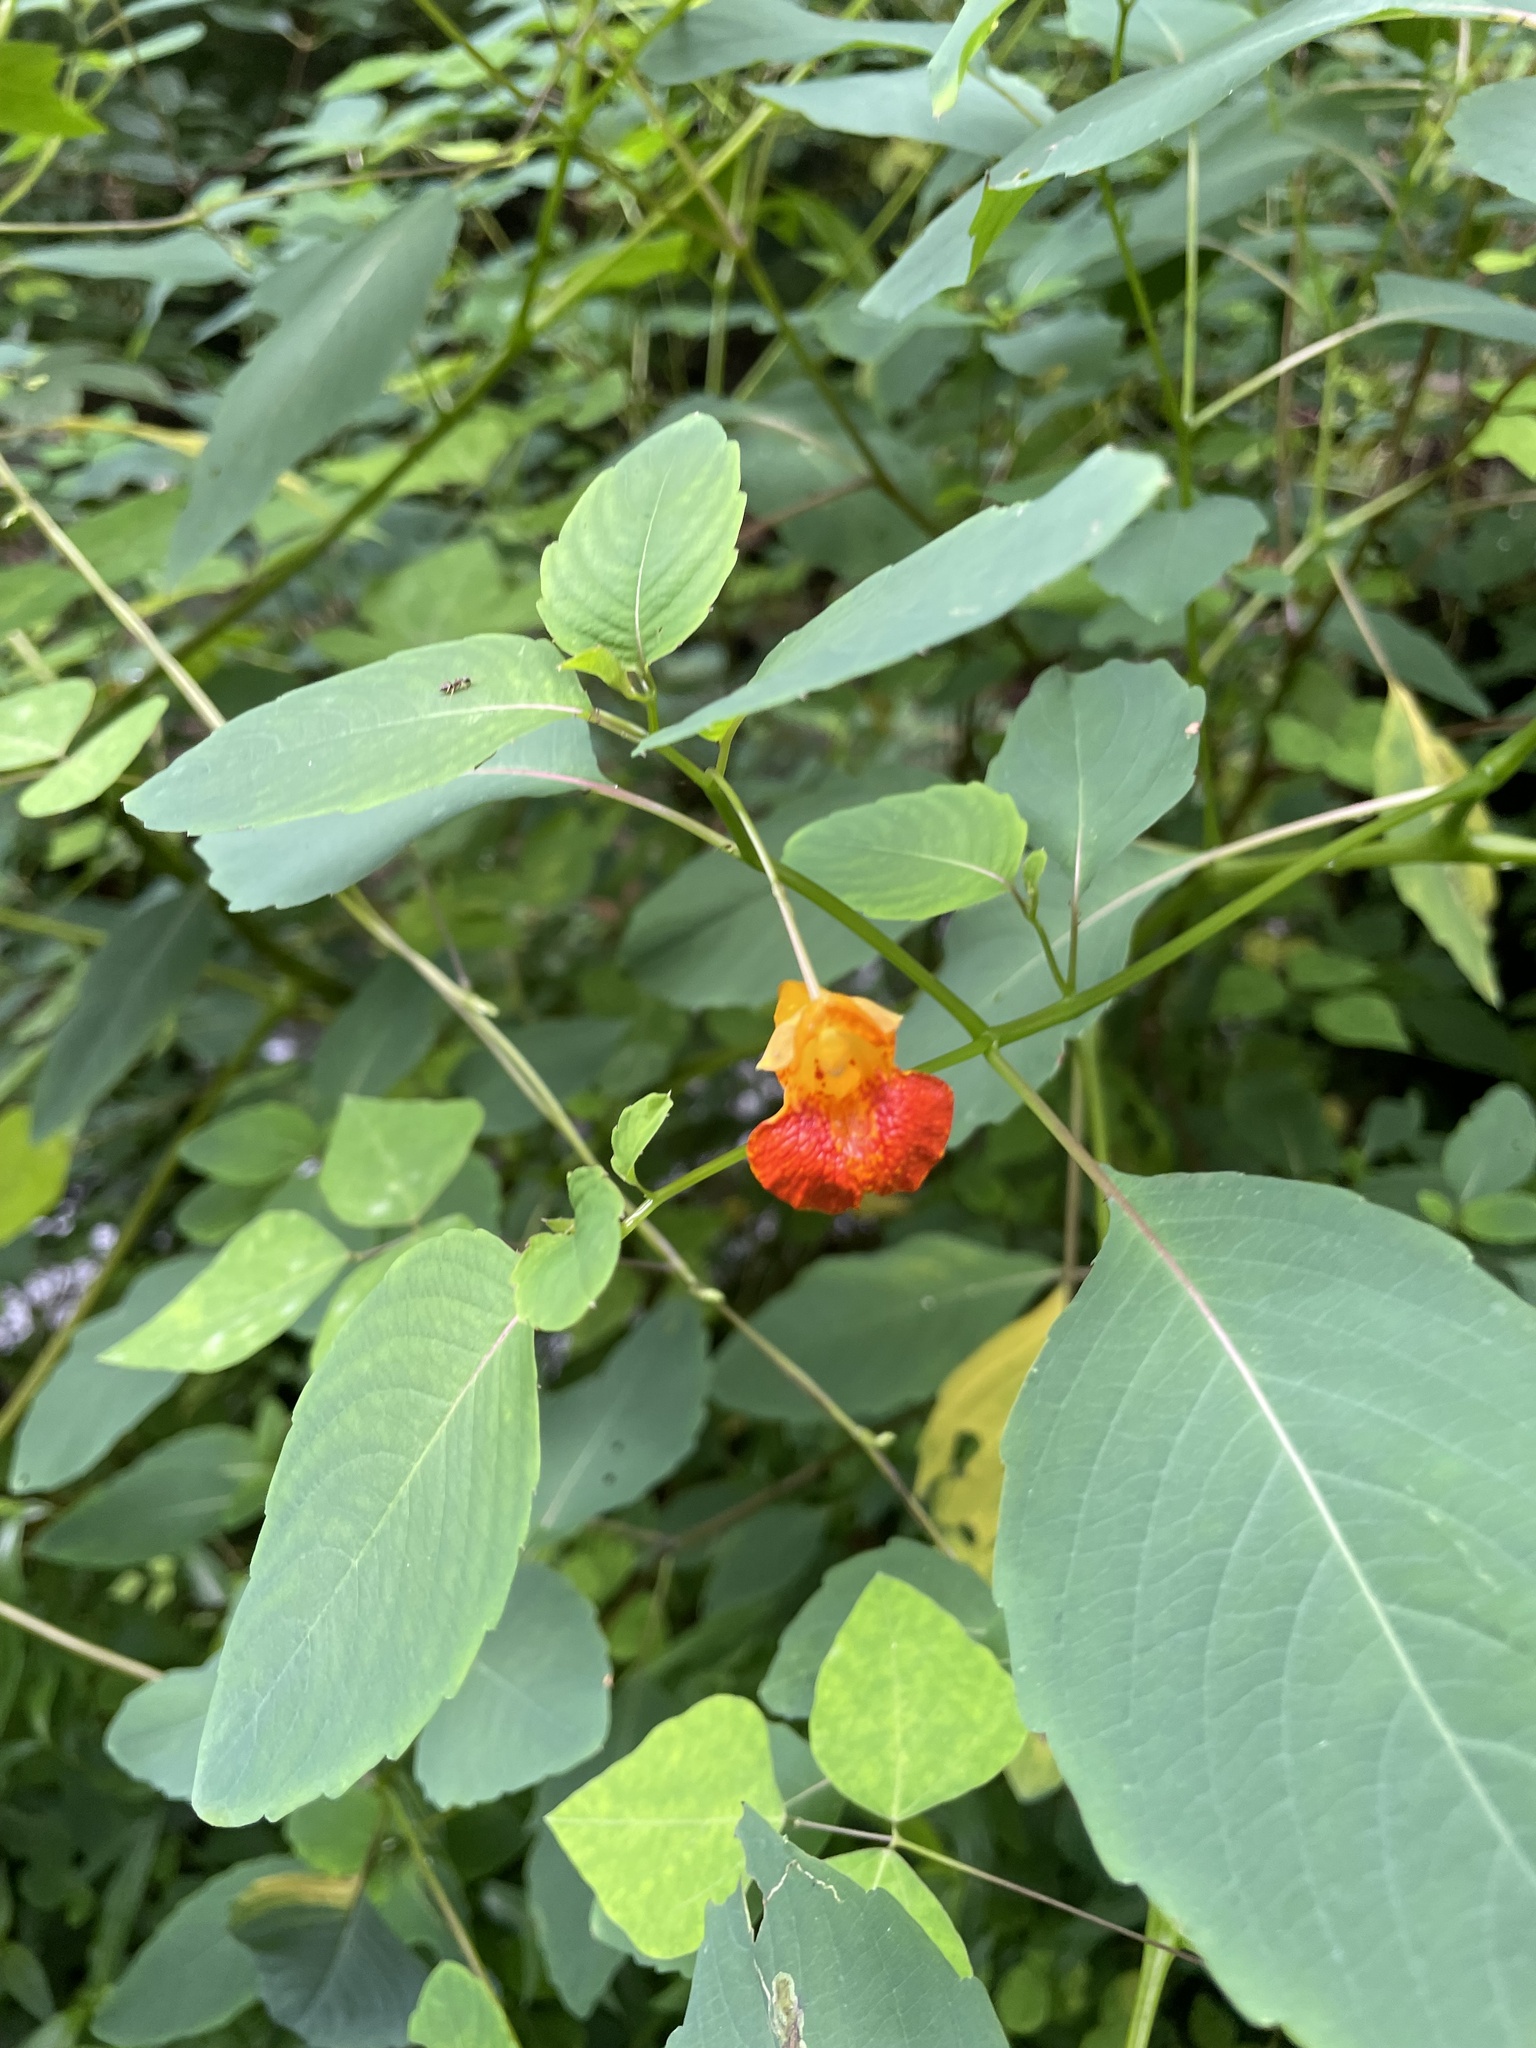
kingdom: Plantae
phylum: Tracheophyta
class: Magnoliopsida
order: Ericales
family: Balsaminaceae
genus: Impatiens
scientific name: Impatiens capensis
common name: Orange balsam
